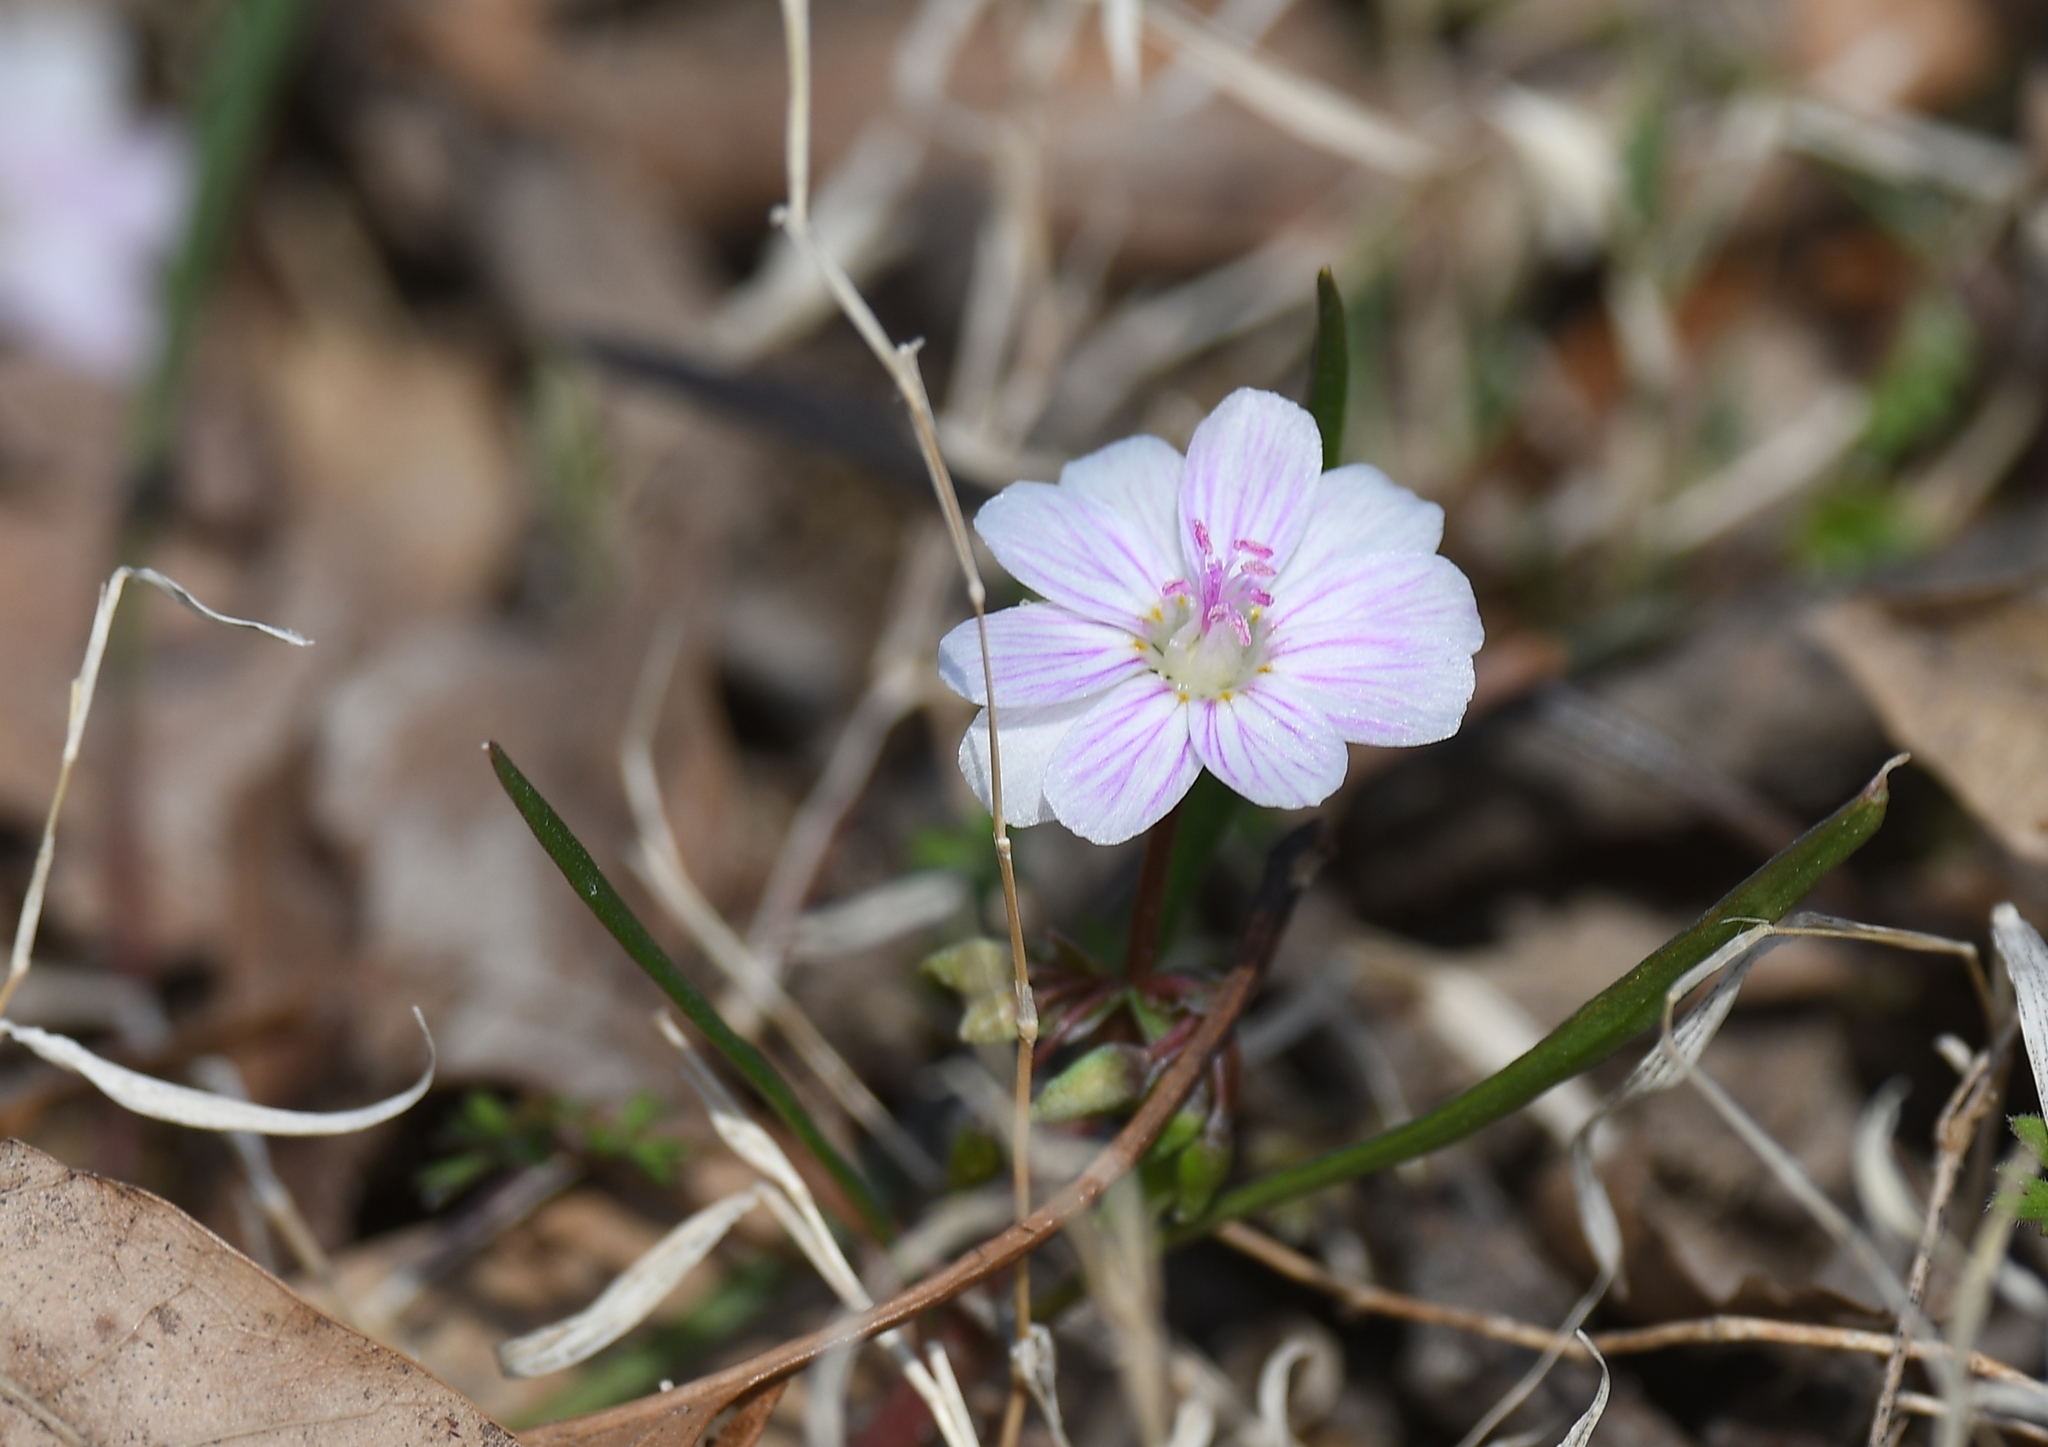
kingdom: Plantae
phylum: Tracheophyta
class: Magnoliopsida
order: Caryophyllales
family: Montiaceae
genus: Claytonia
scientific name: Claytonia virginica
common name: Virginia springbeauty
